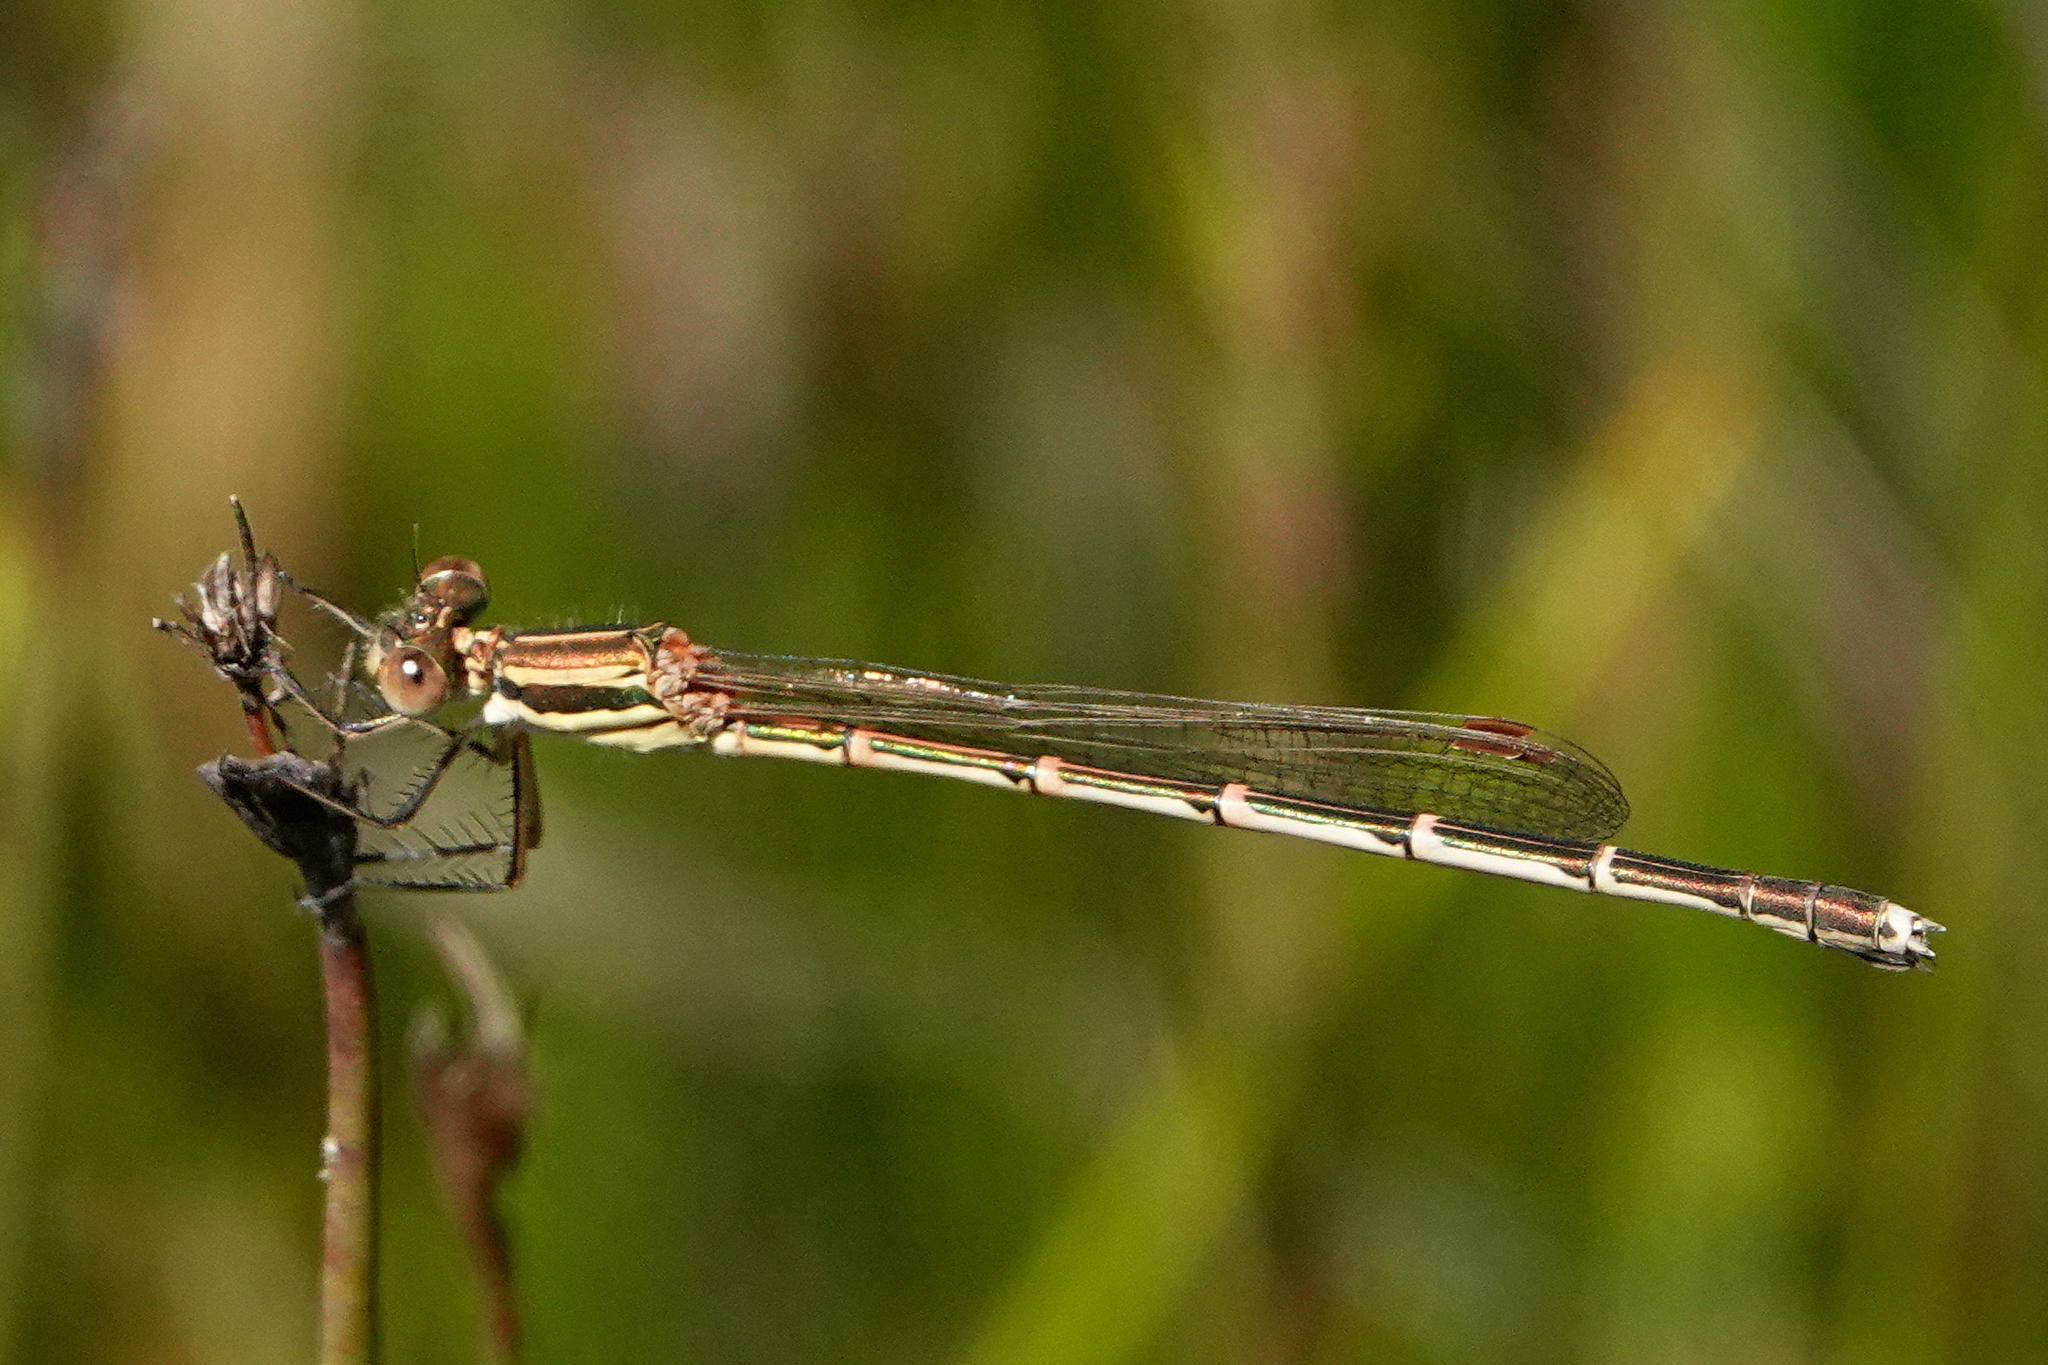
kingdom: Animalia
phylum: Arthropoda
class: Insecta
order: Odonata
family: Lestidae
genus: Austrolestes
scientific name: Austrolestes analis
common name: Slender ringtail
